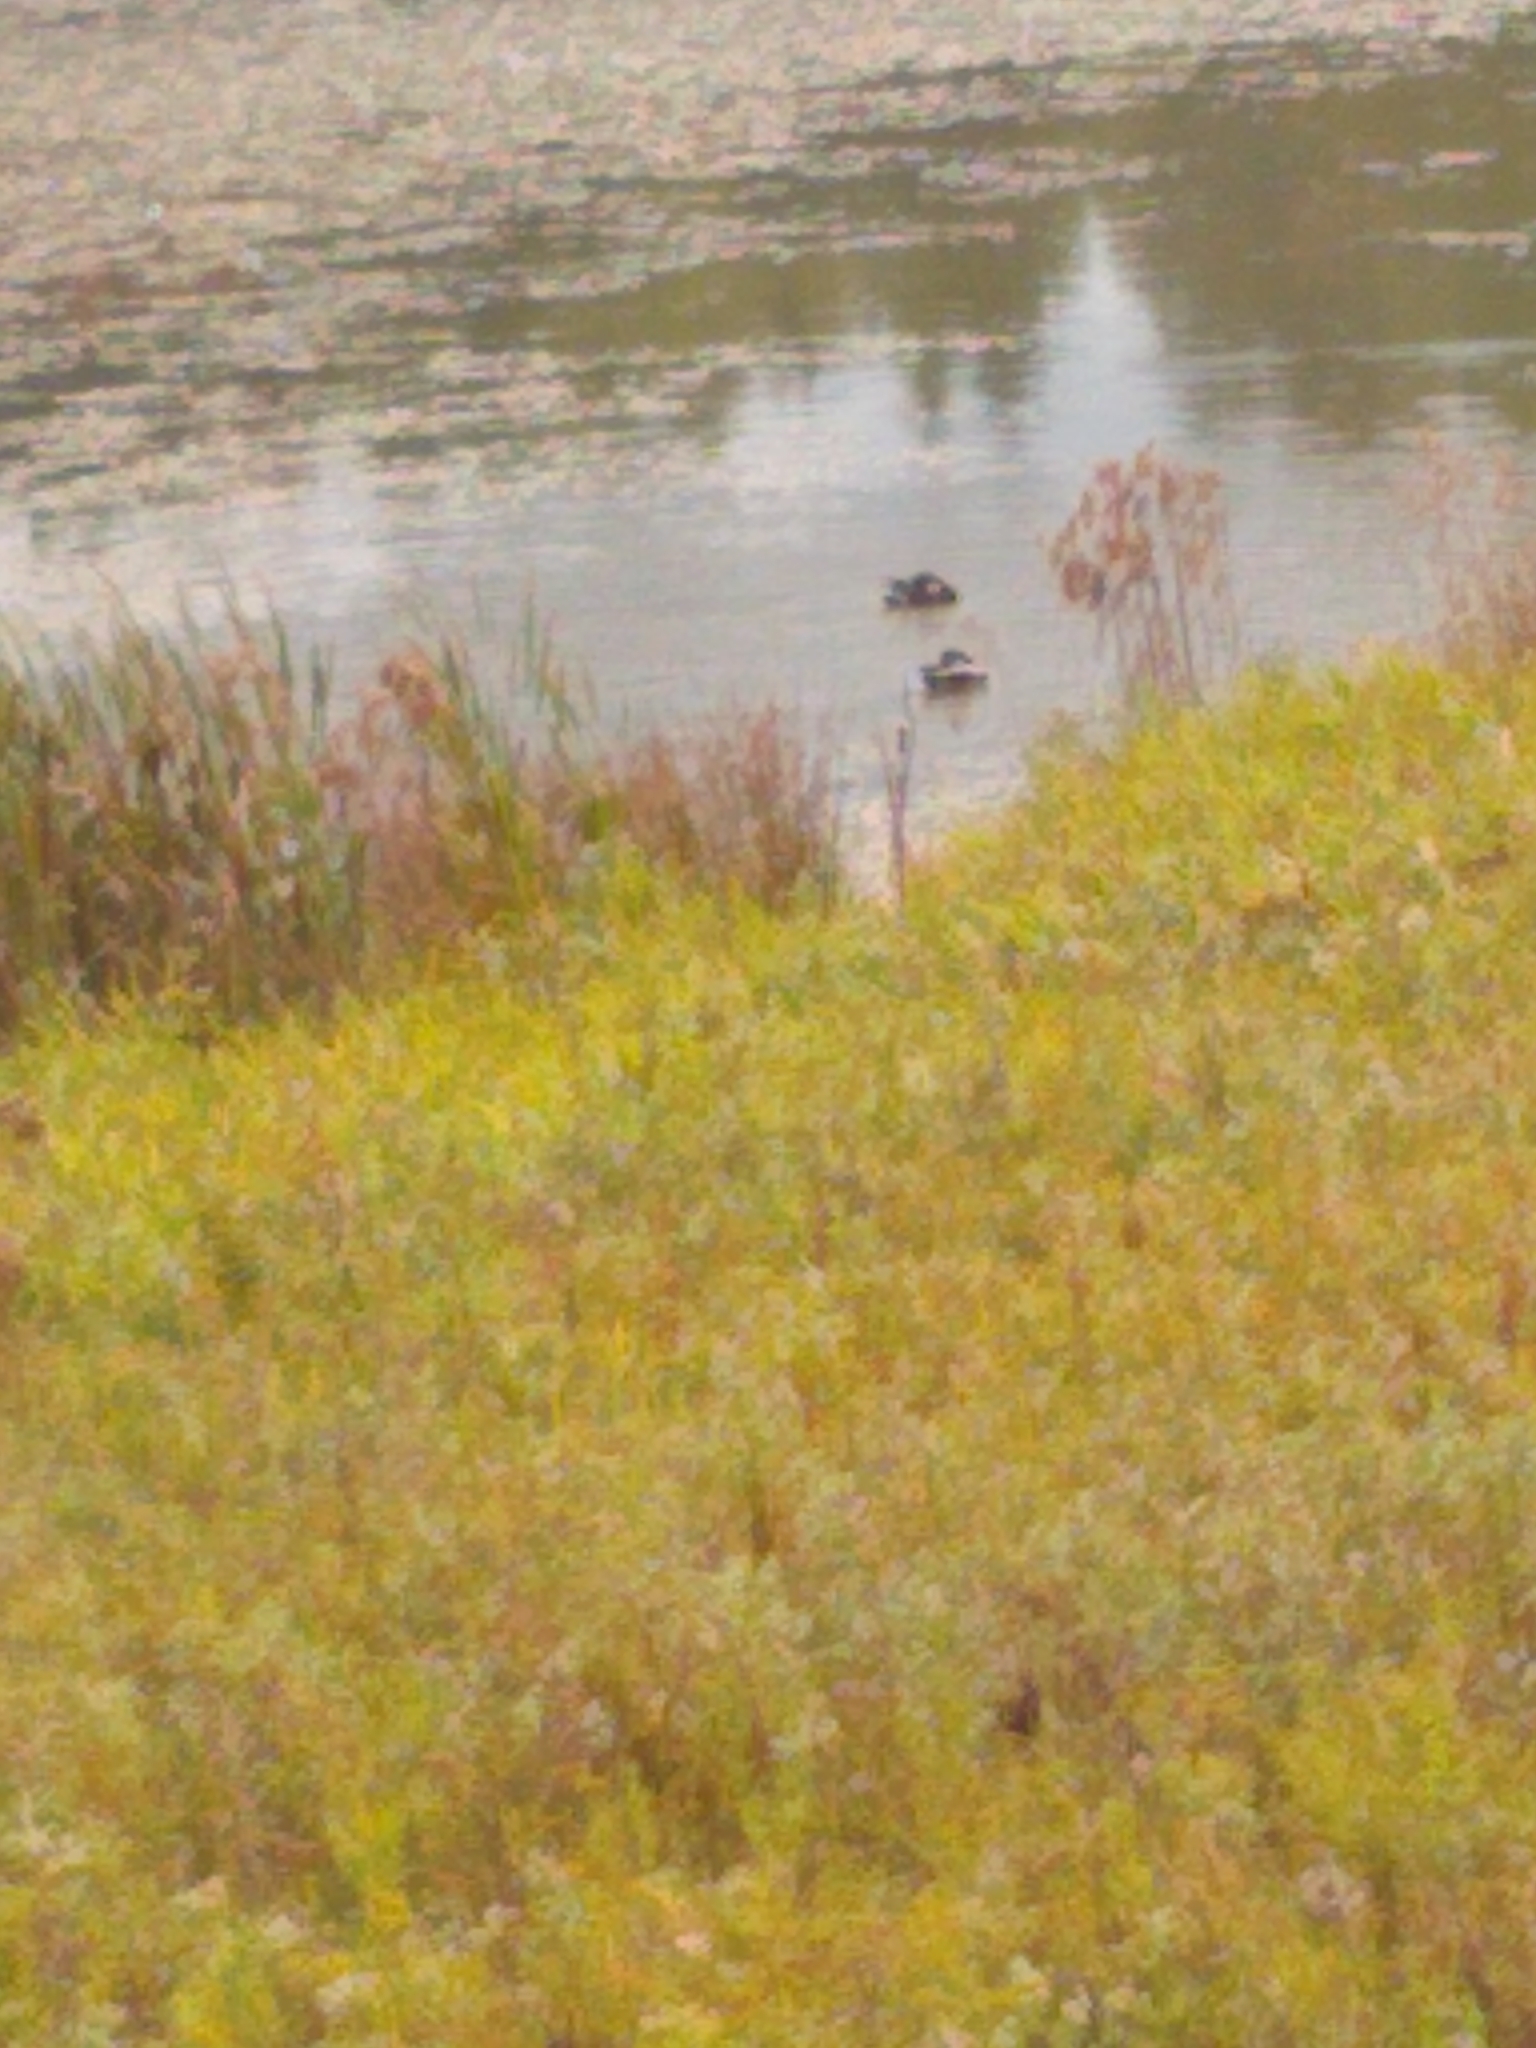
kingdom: Animalia
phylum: Chordata
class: Aves
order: Anseriformes
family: Anatidae
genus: Anas
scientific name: Anas platyrhynchos
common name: Mallard
